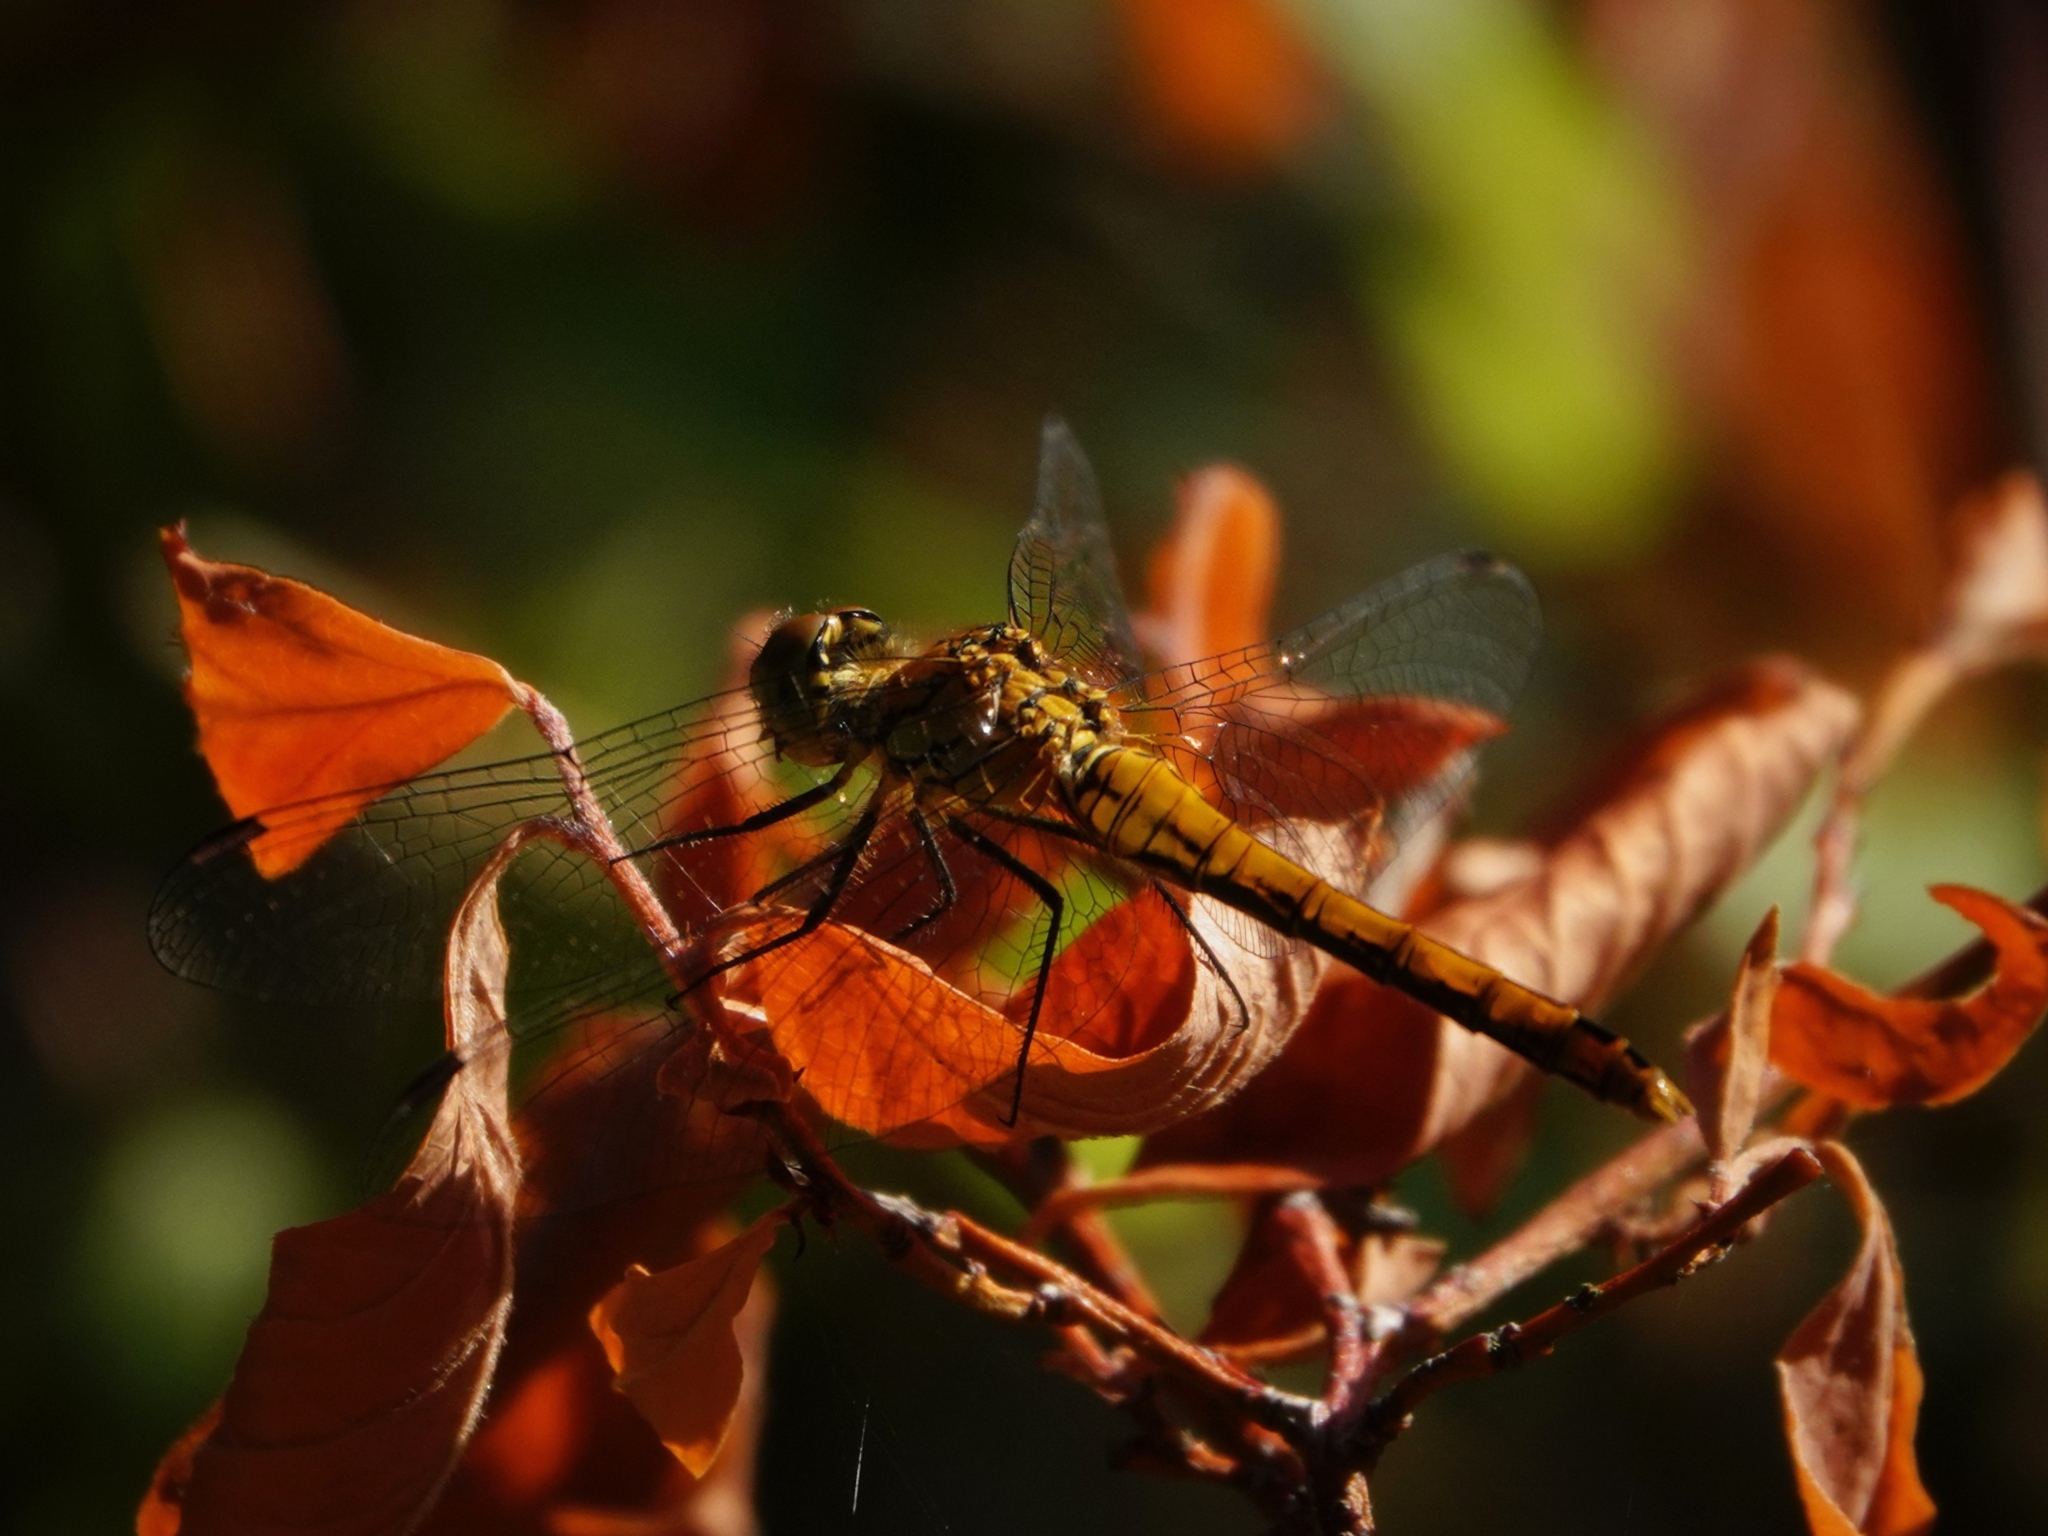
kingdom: Animalia
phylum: Arthropoda
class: Insecta
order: Odonata
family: Libellulidae
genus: Sympetrum
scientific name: Sympetrum sanguineum
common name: Ruddy darter
